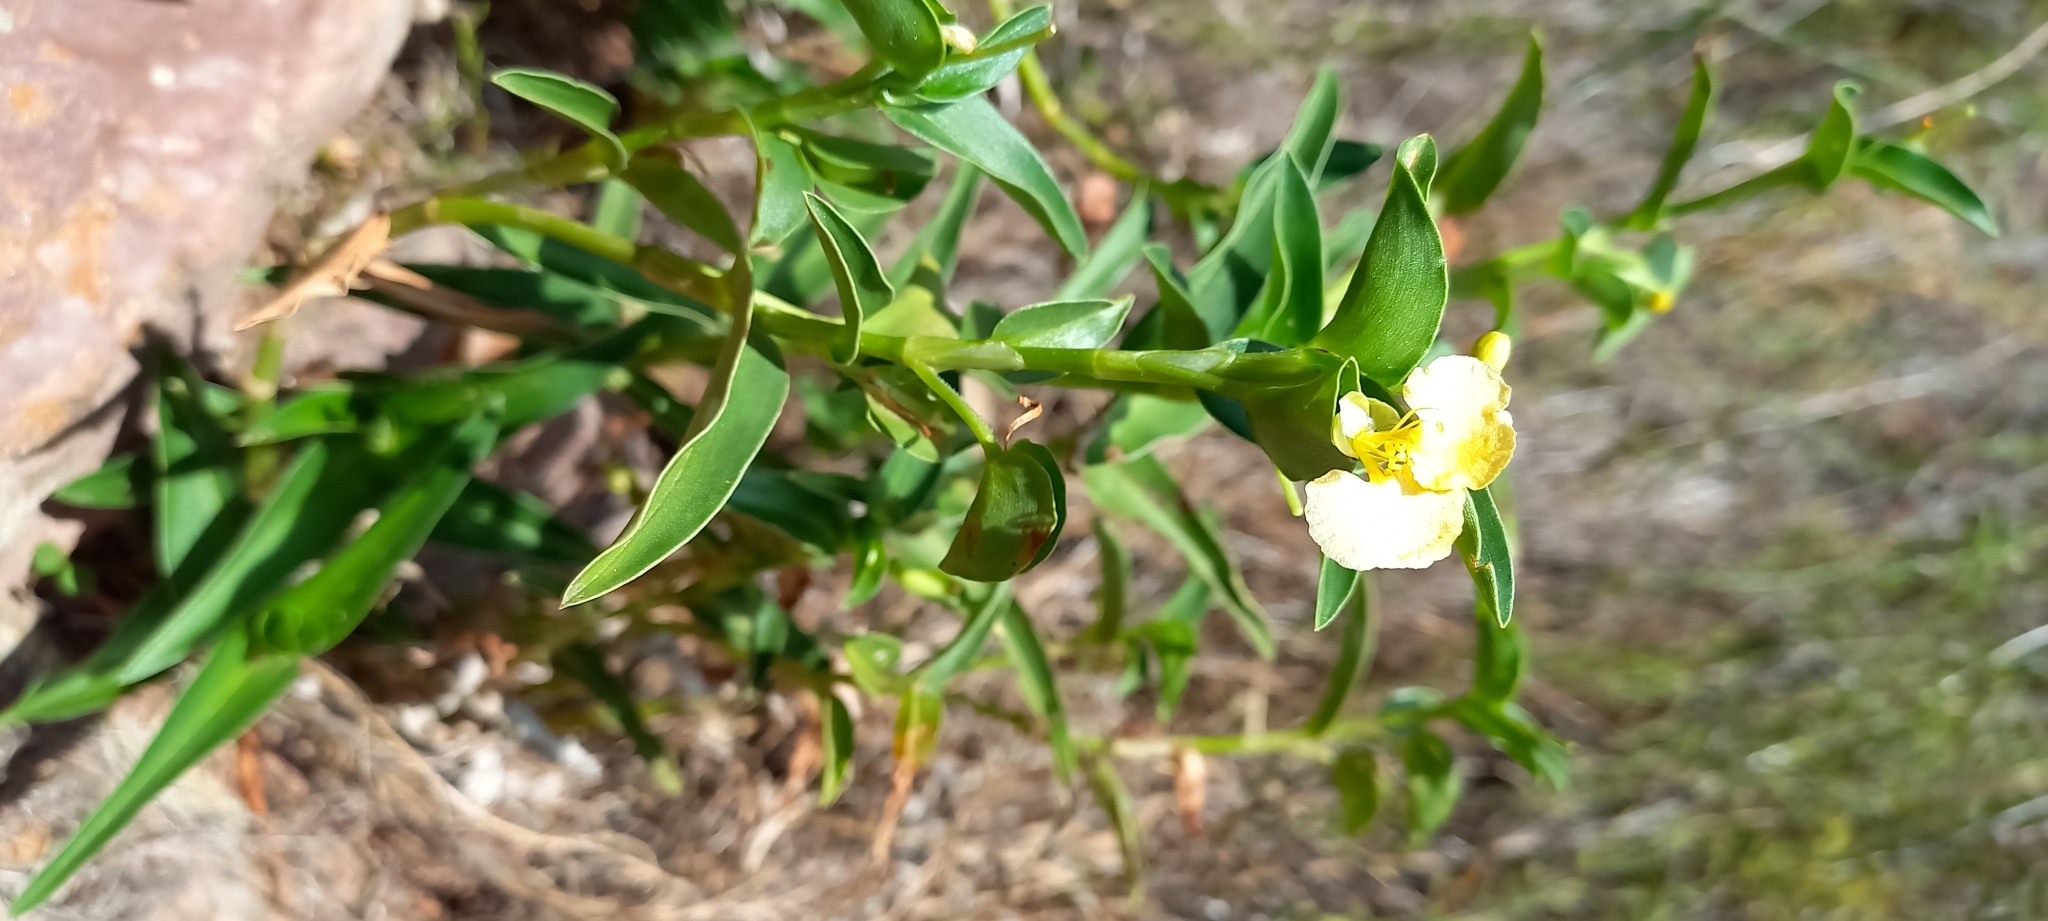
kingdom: Plantae
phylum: Tracheophyta
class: Liliopsida
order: Commelinales
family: Commelinaceae
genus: Commelina
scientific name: Commelina africana
